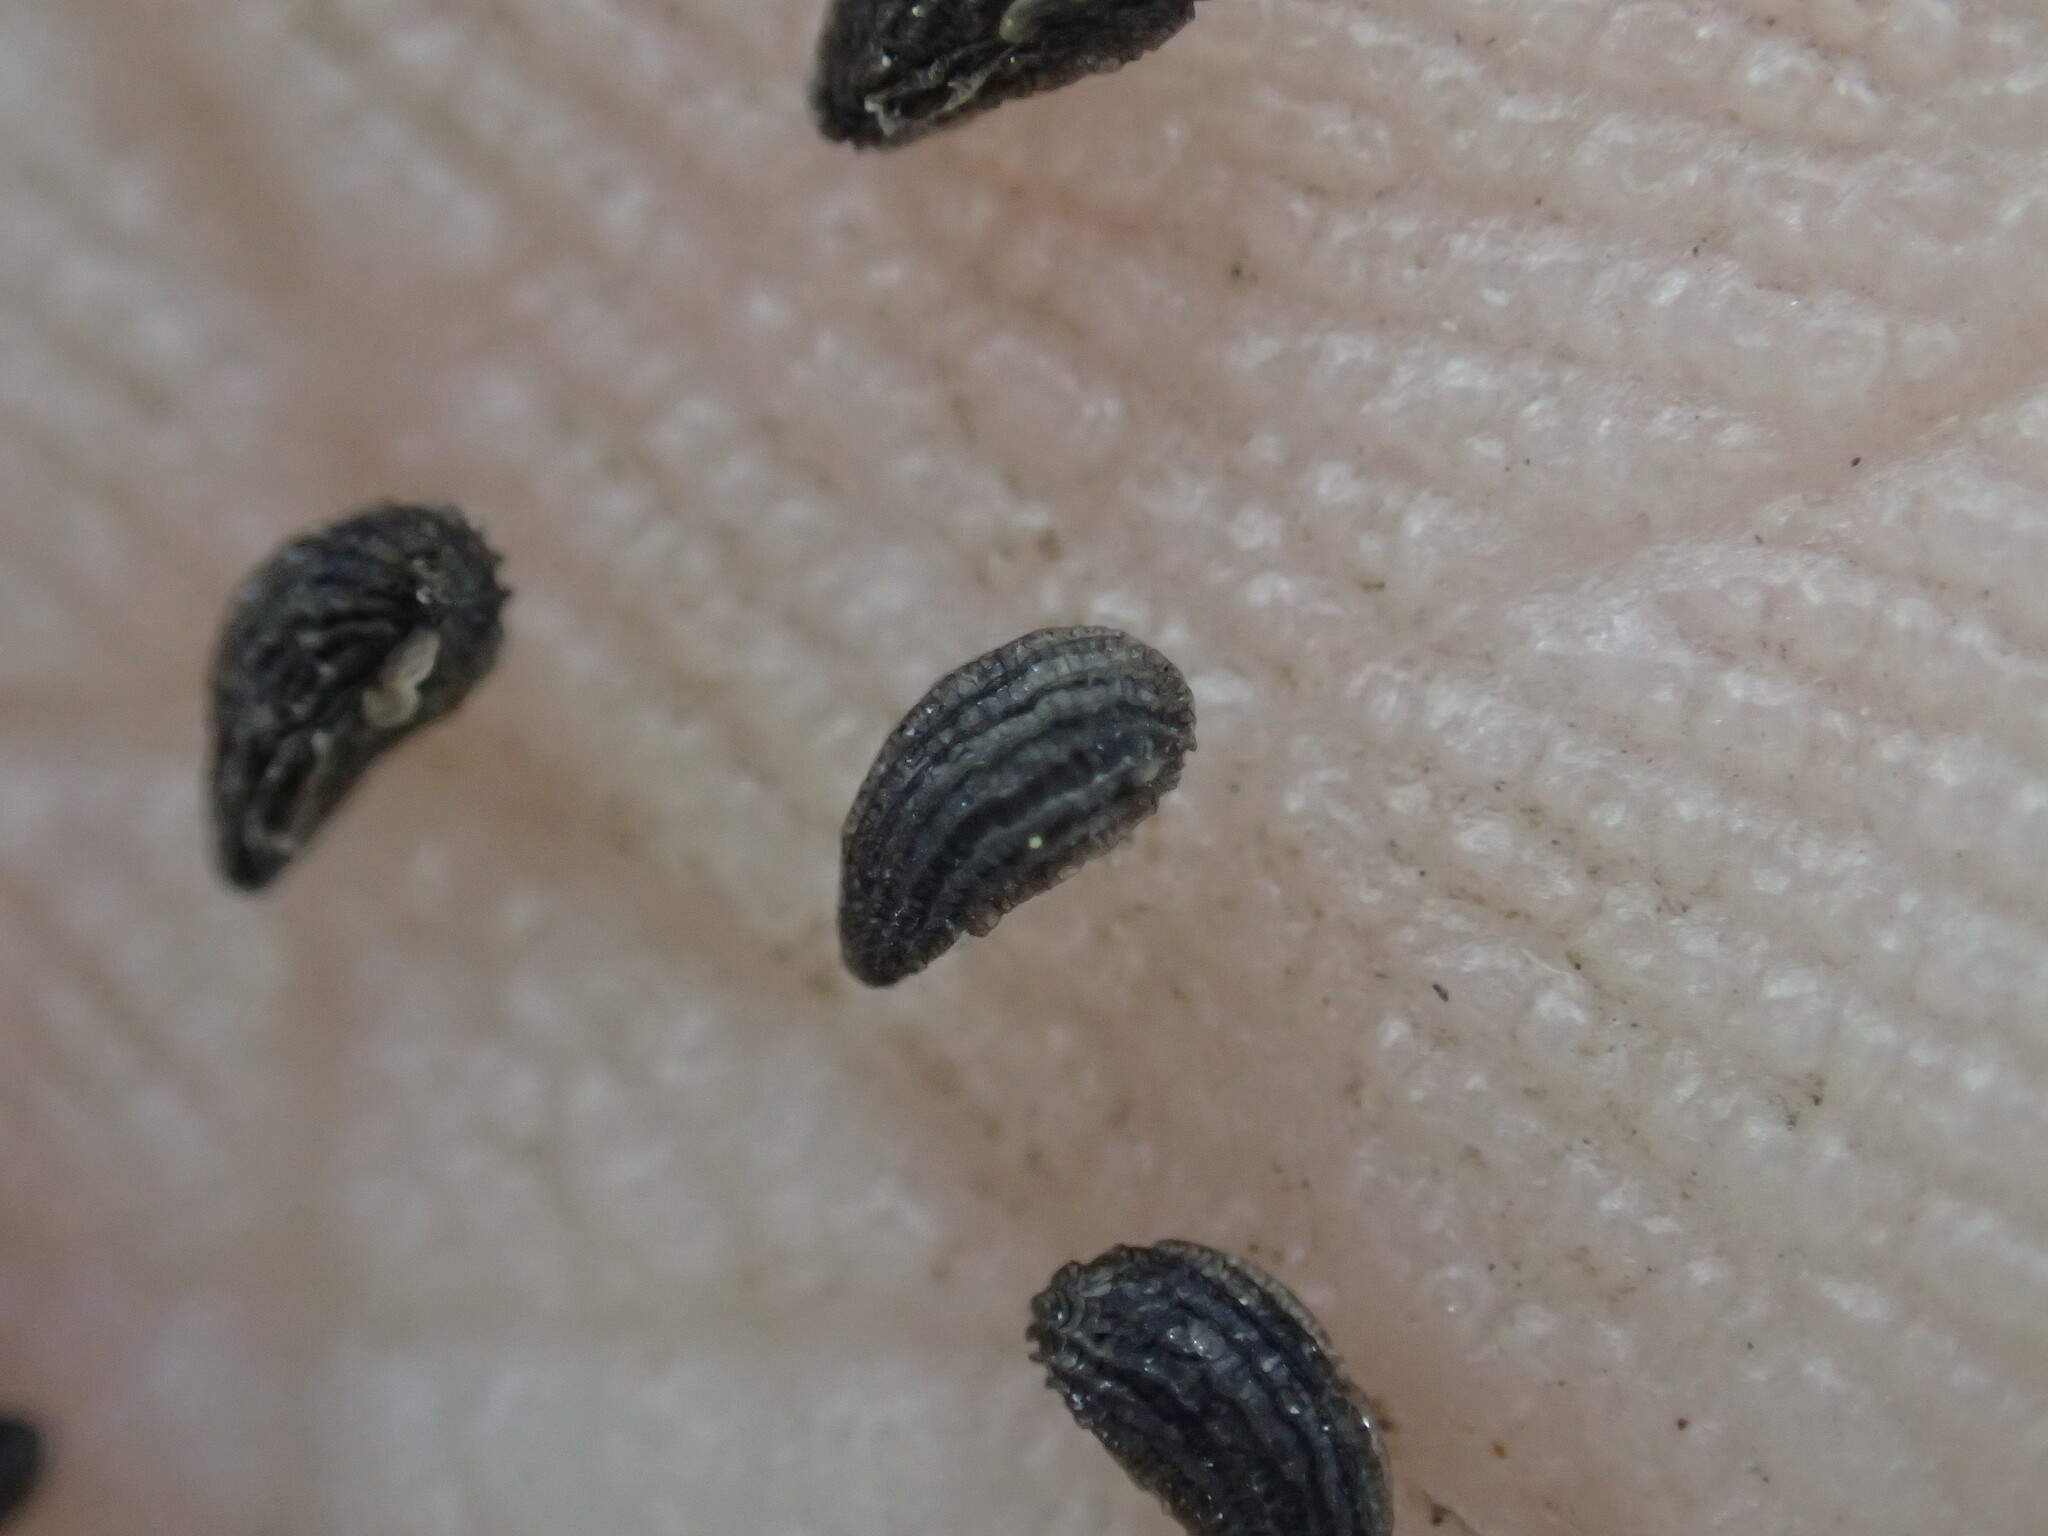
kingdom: Plantae
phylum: Tracheophyta
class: Magnoliopsida
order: Lamiales
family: Orobanchaceae
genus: Orthocarpus
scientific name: Orthocarpus cuspidatus
